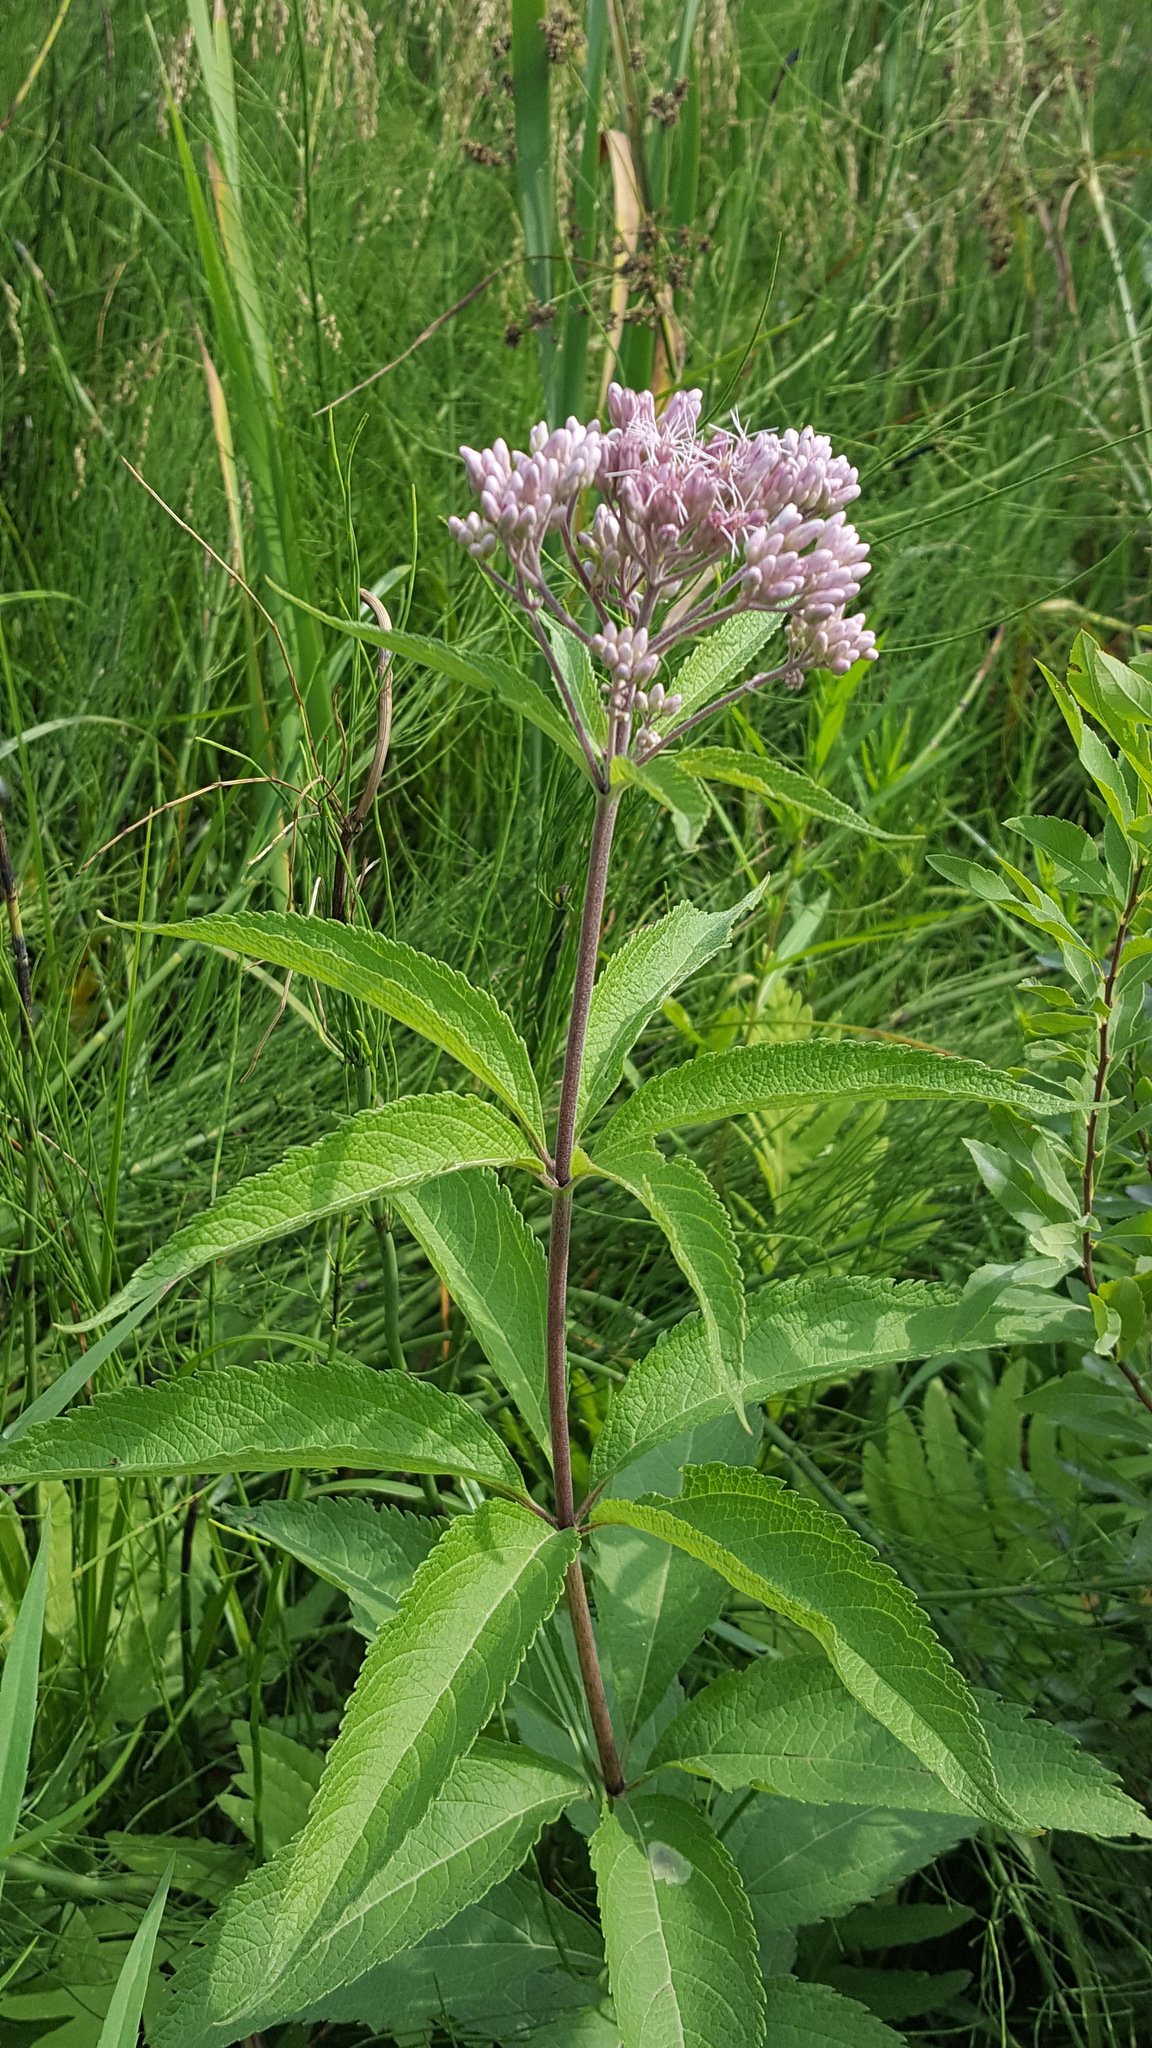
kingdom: Plantae
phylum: Tracheophyta
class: Magnoliopsida
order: Asterales
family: Asteraceae
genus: Eutrochium
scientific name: Eutrochium maculatum
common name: Spotted joe pye weed
